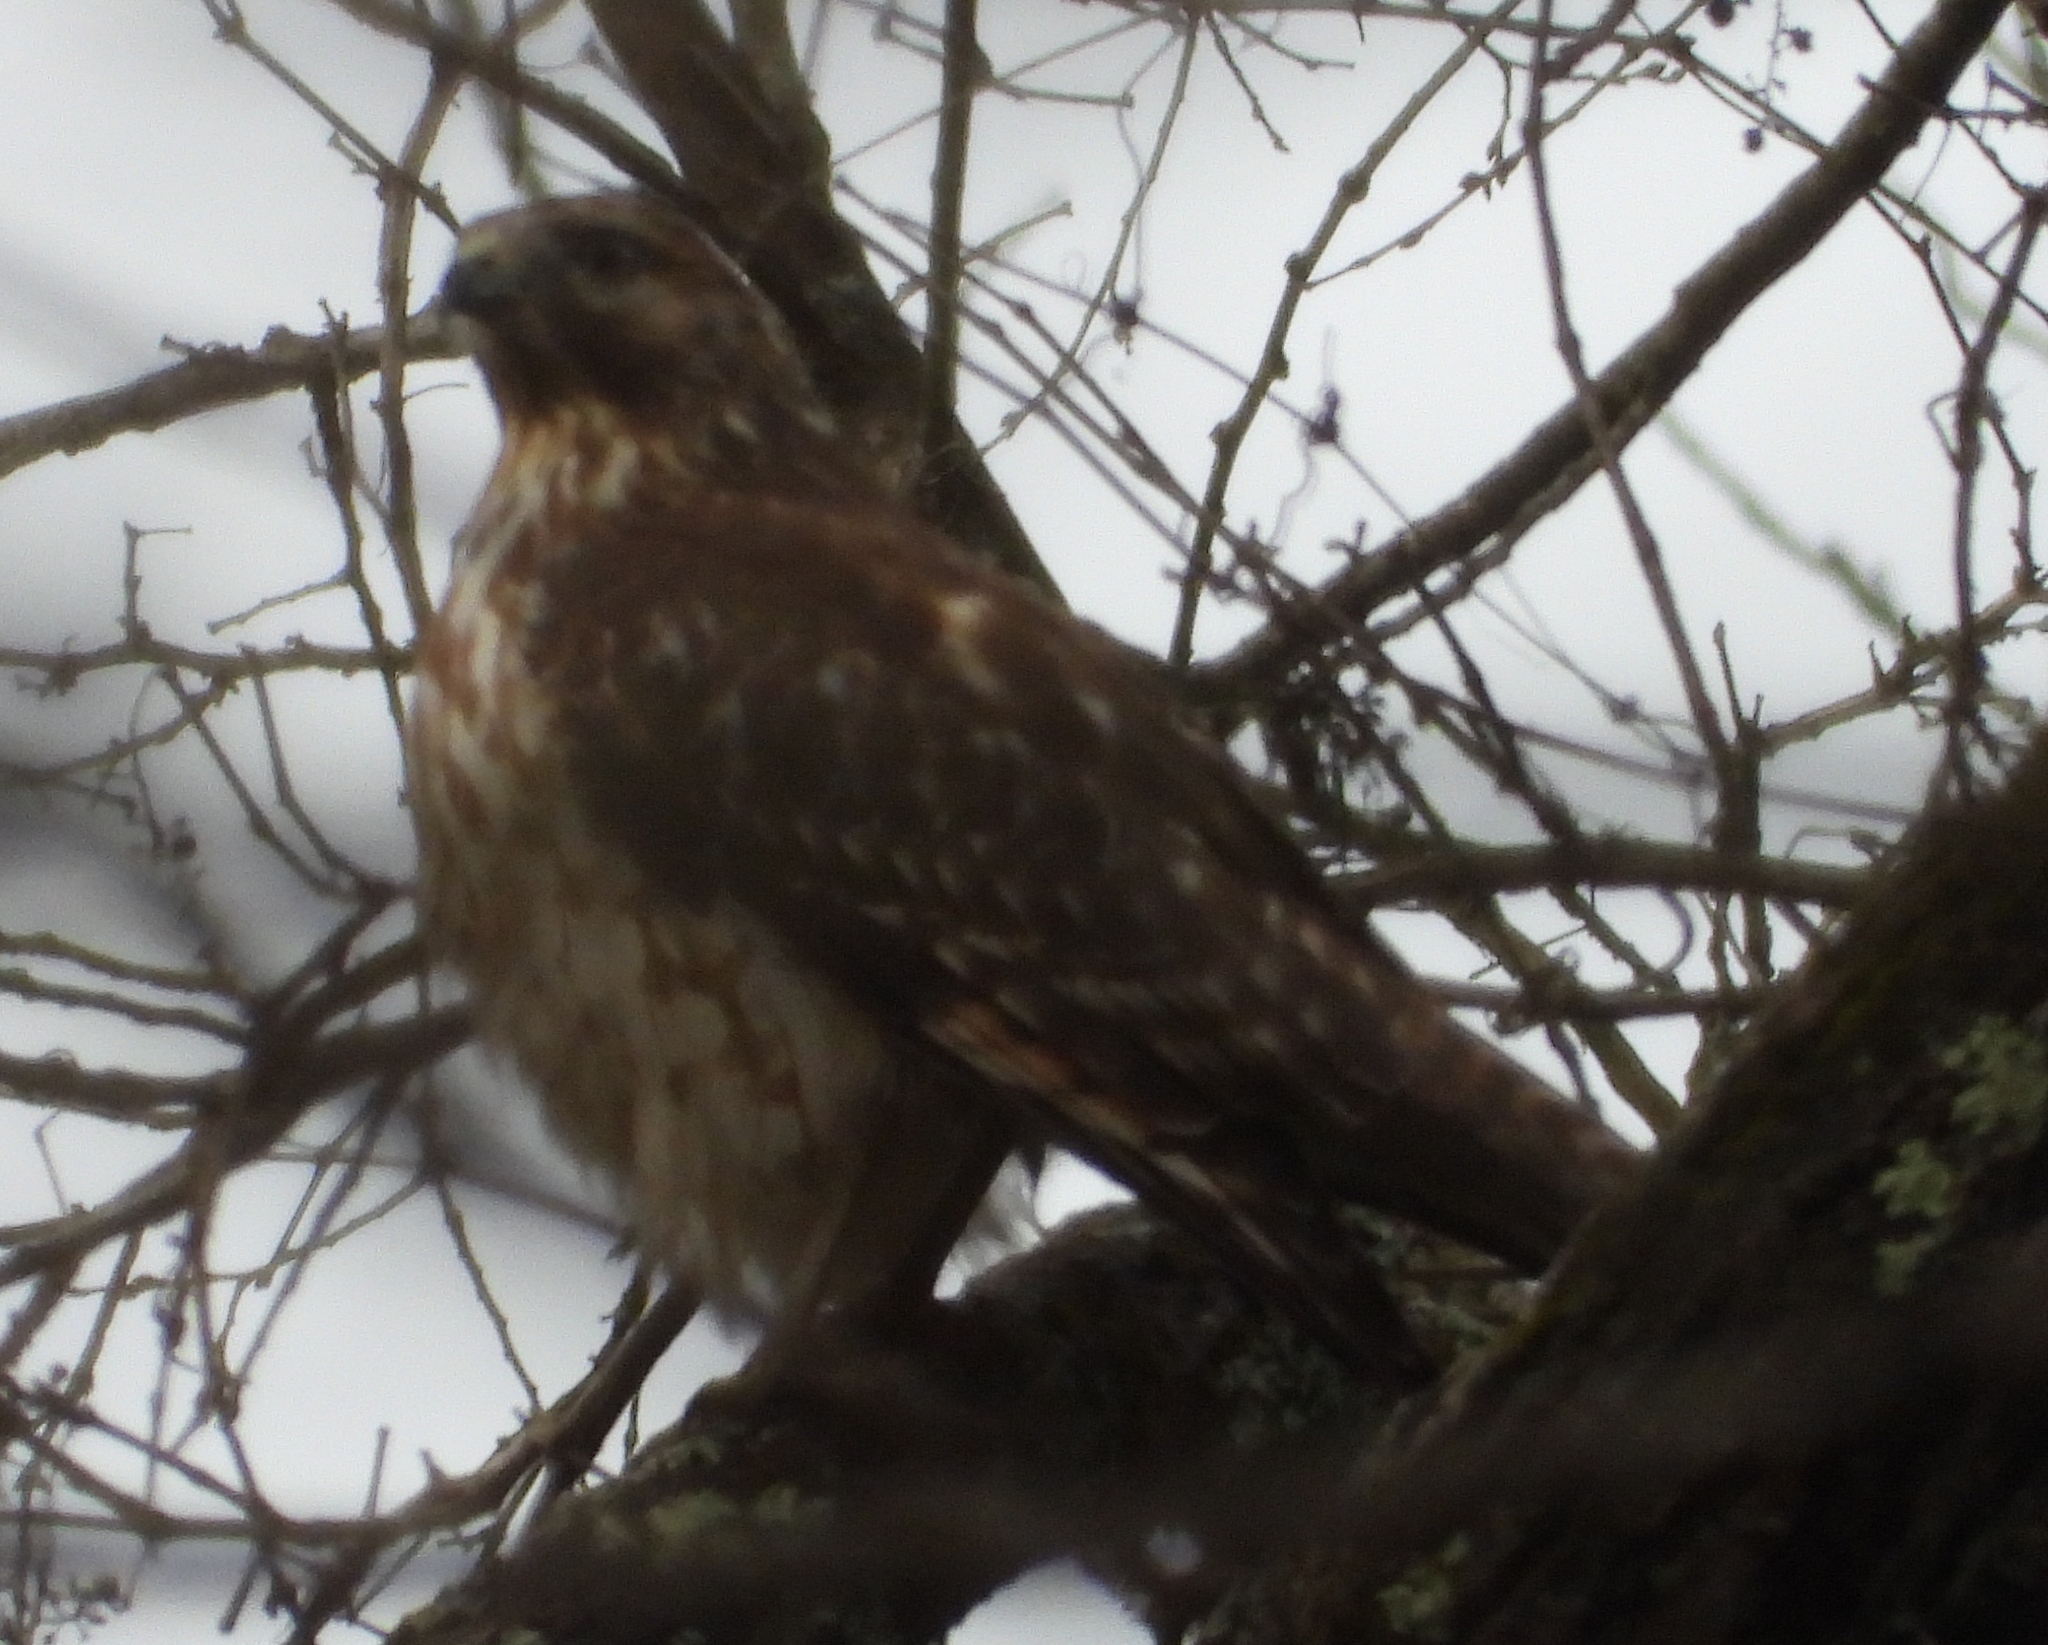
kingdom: Animalia
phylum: Chordata
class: Aves
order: Accipitriformes
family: Accipitridae
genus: Buteo
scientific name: Buteo lineatus
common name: Red-shouldered hawk
